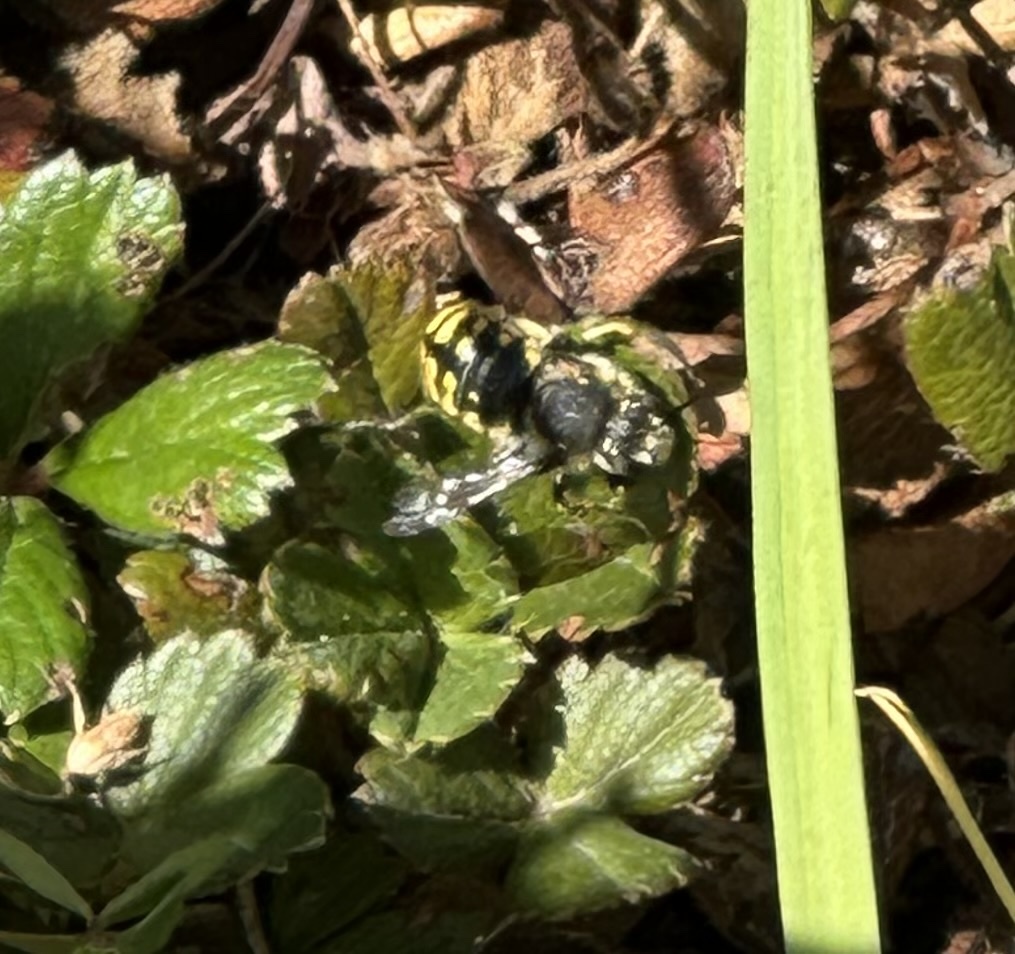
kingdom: Animalia
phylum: Arthropoda
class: Insecta
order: Hymenoptera
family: Megachilidae
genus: Anthidium
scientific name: Anthidium manicatum
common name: Wool carder bee
